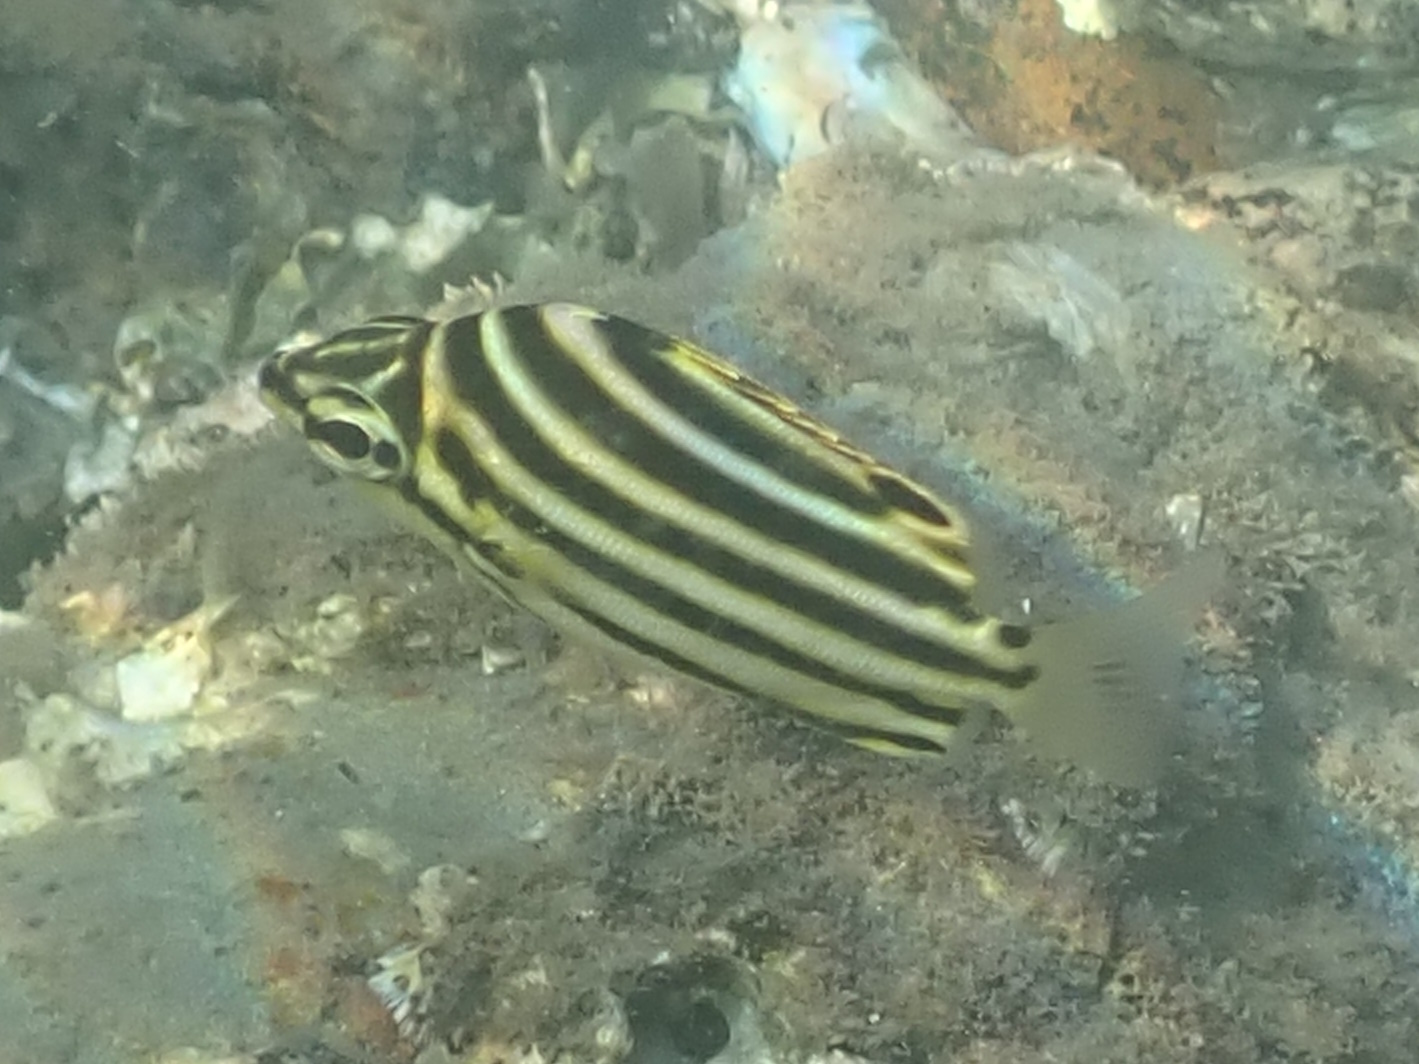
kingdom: Animalia
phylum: Chordata
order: Perciformes
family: Kyphosidae
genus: Microcanthus
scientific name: Microcanthus joyceae
